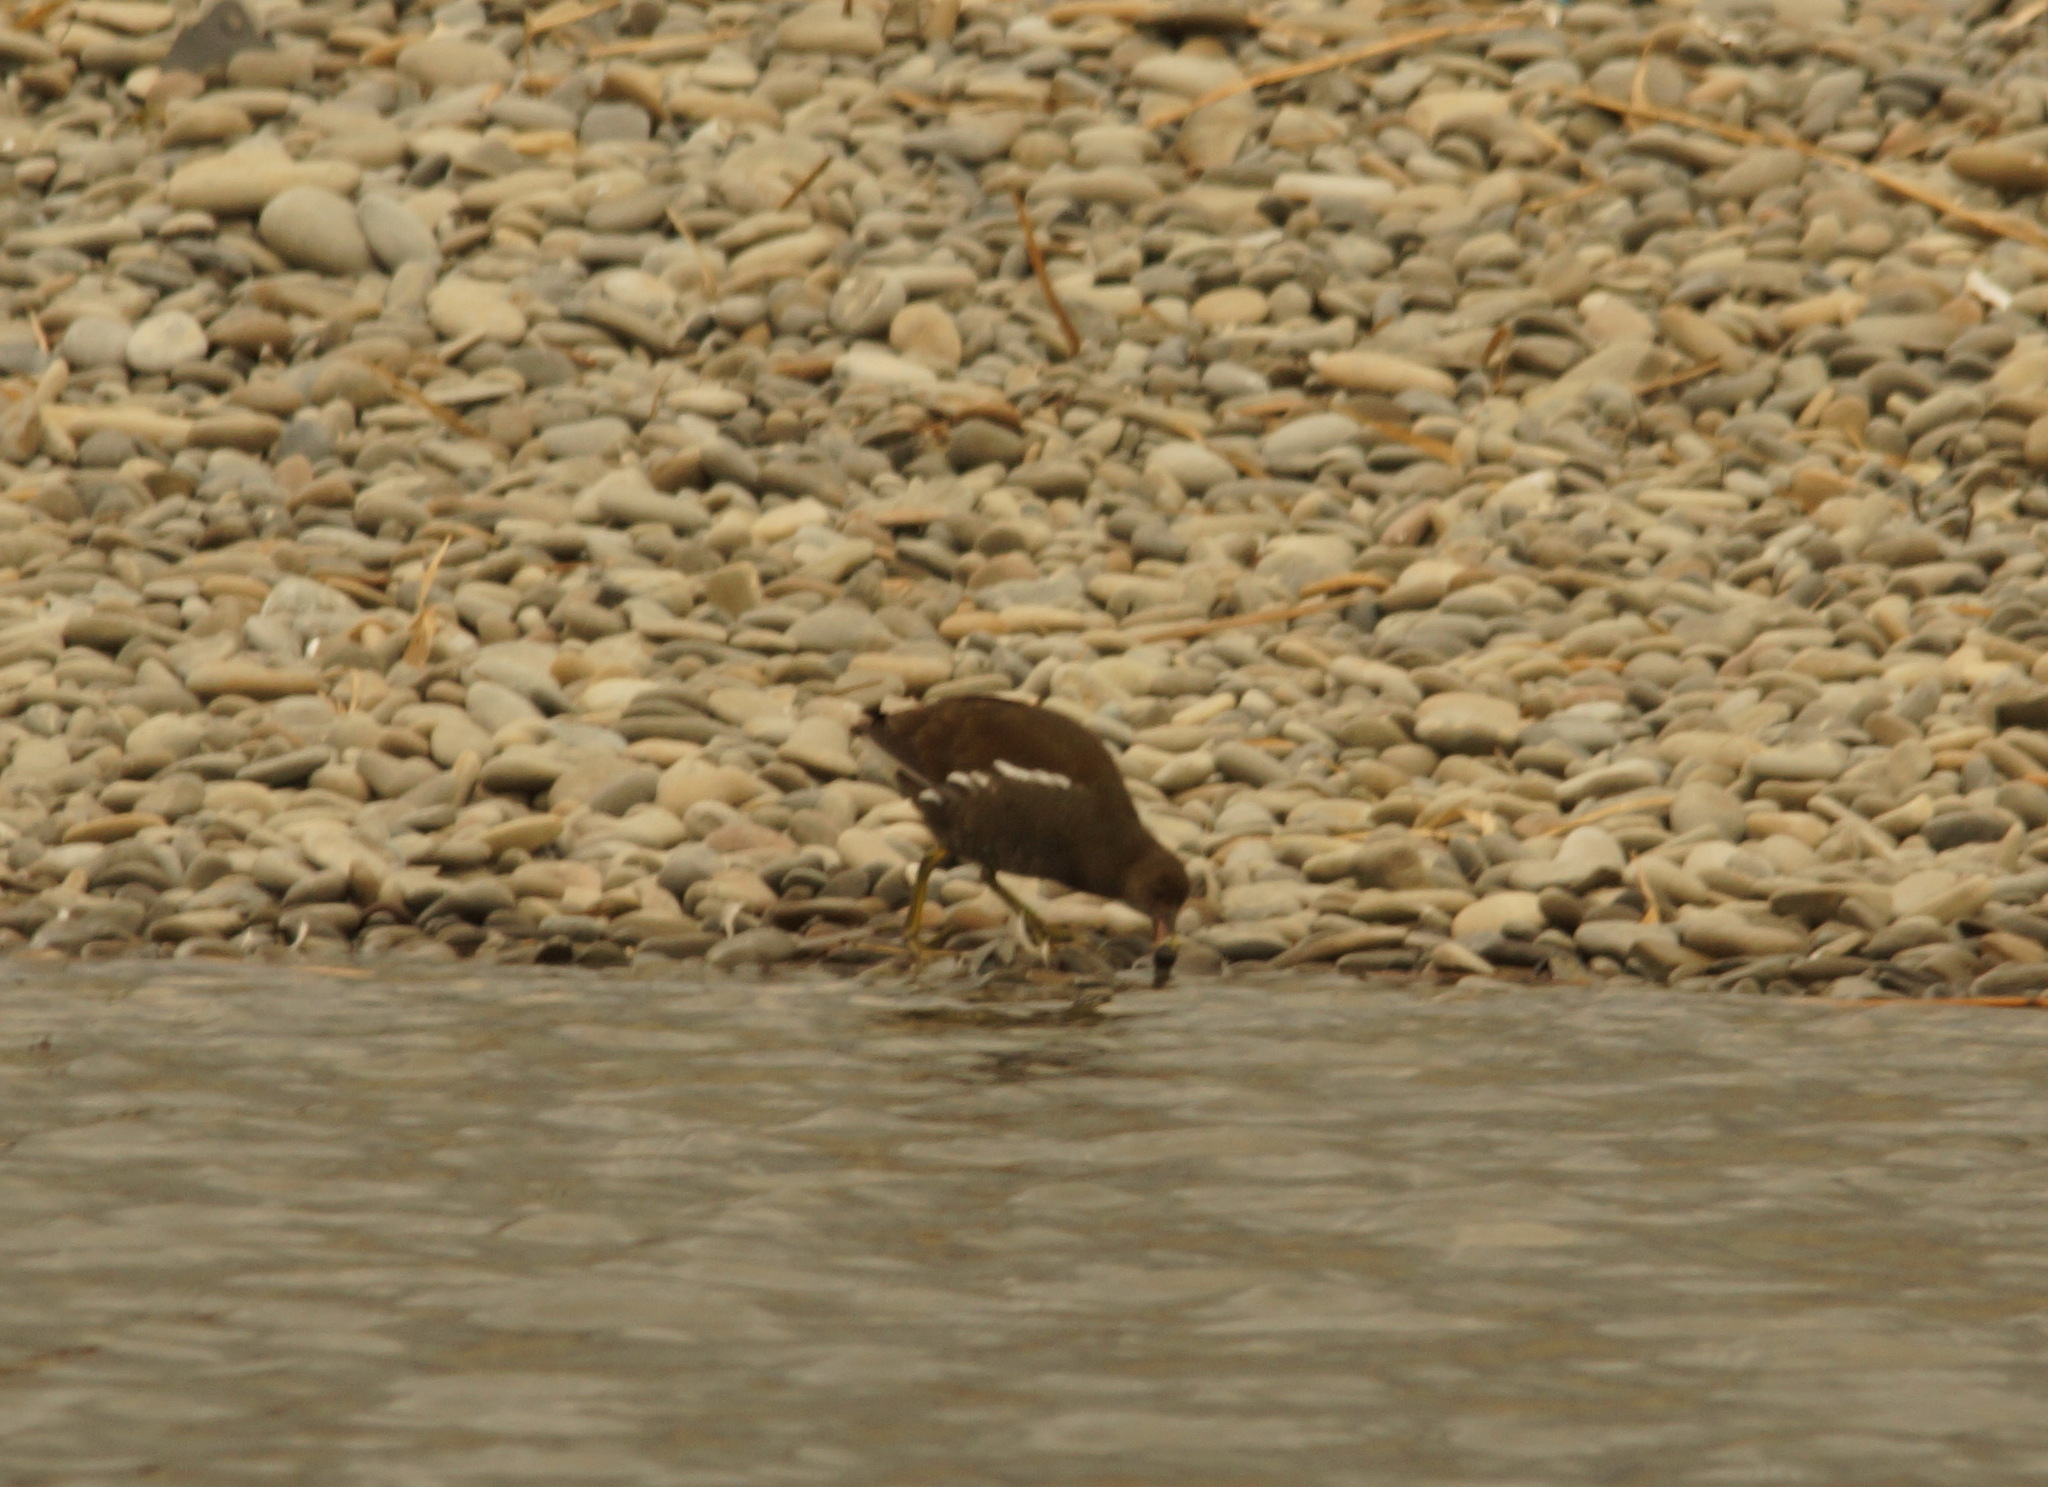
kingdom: Animalia
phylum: Chordata
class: Aves
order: Gruiformes
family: Rallidae
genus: Gallinula
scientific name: Gallinula chloropus
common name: Common moorhen
